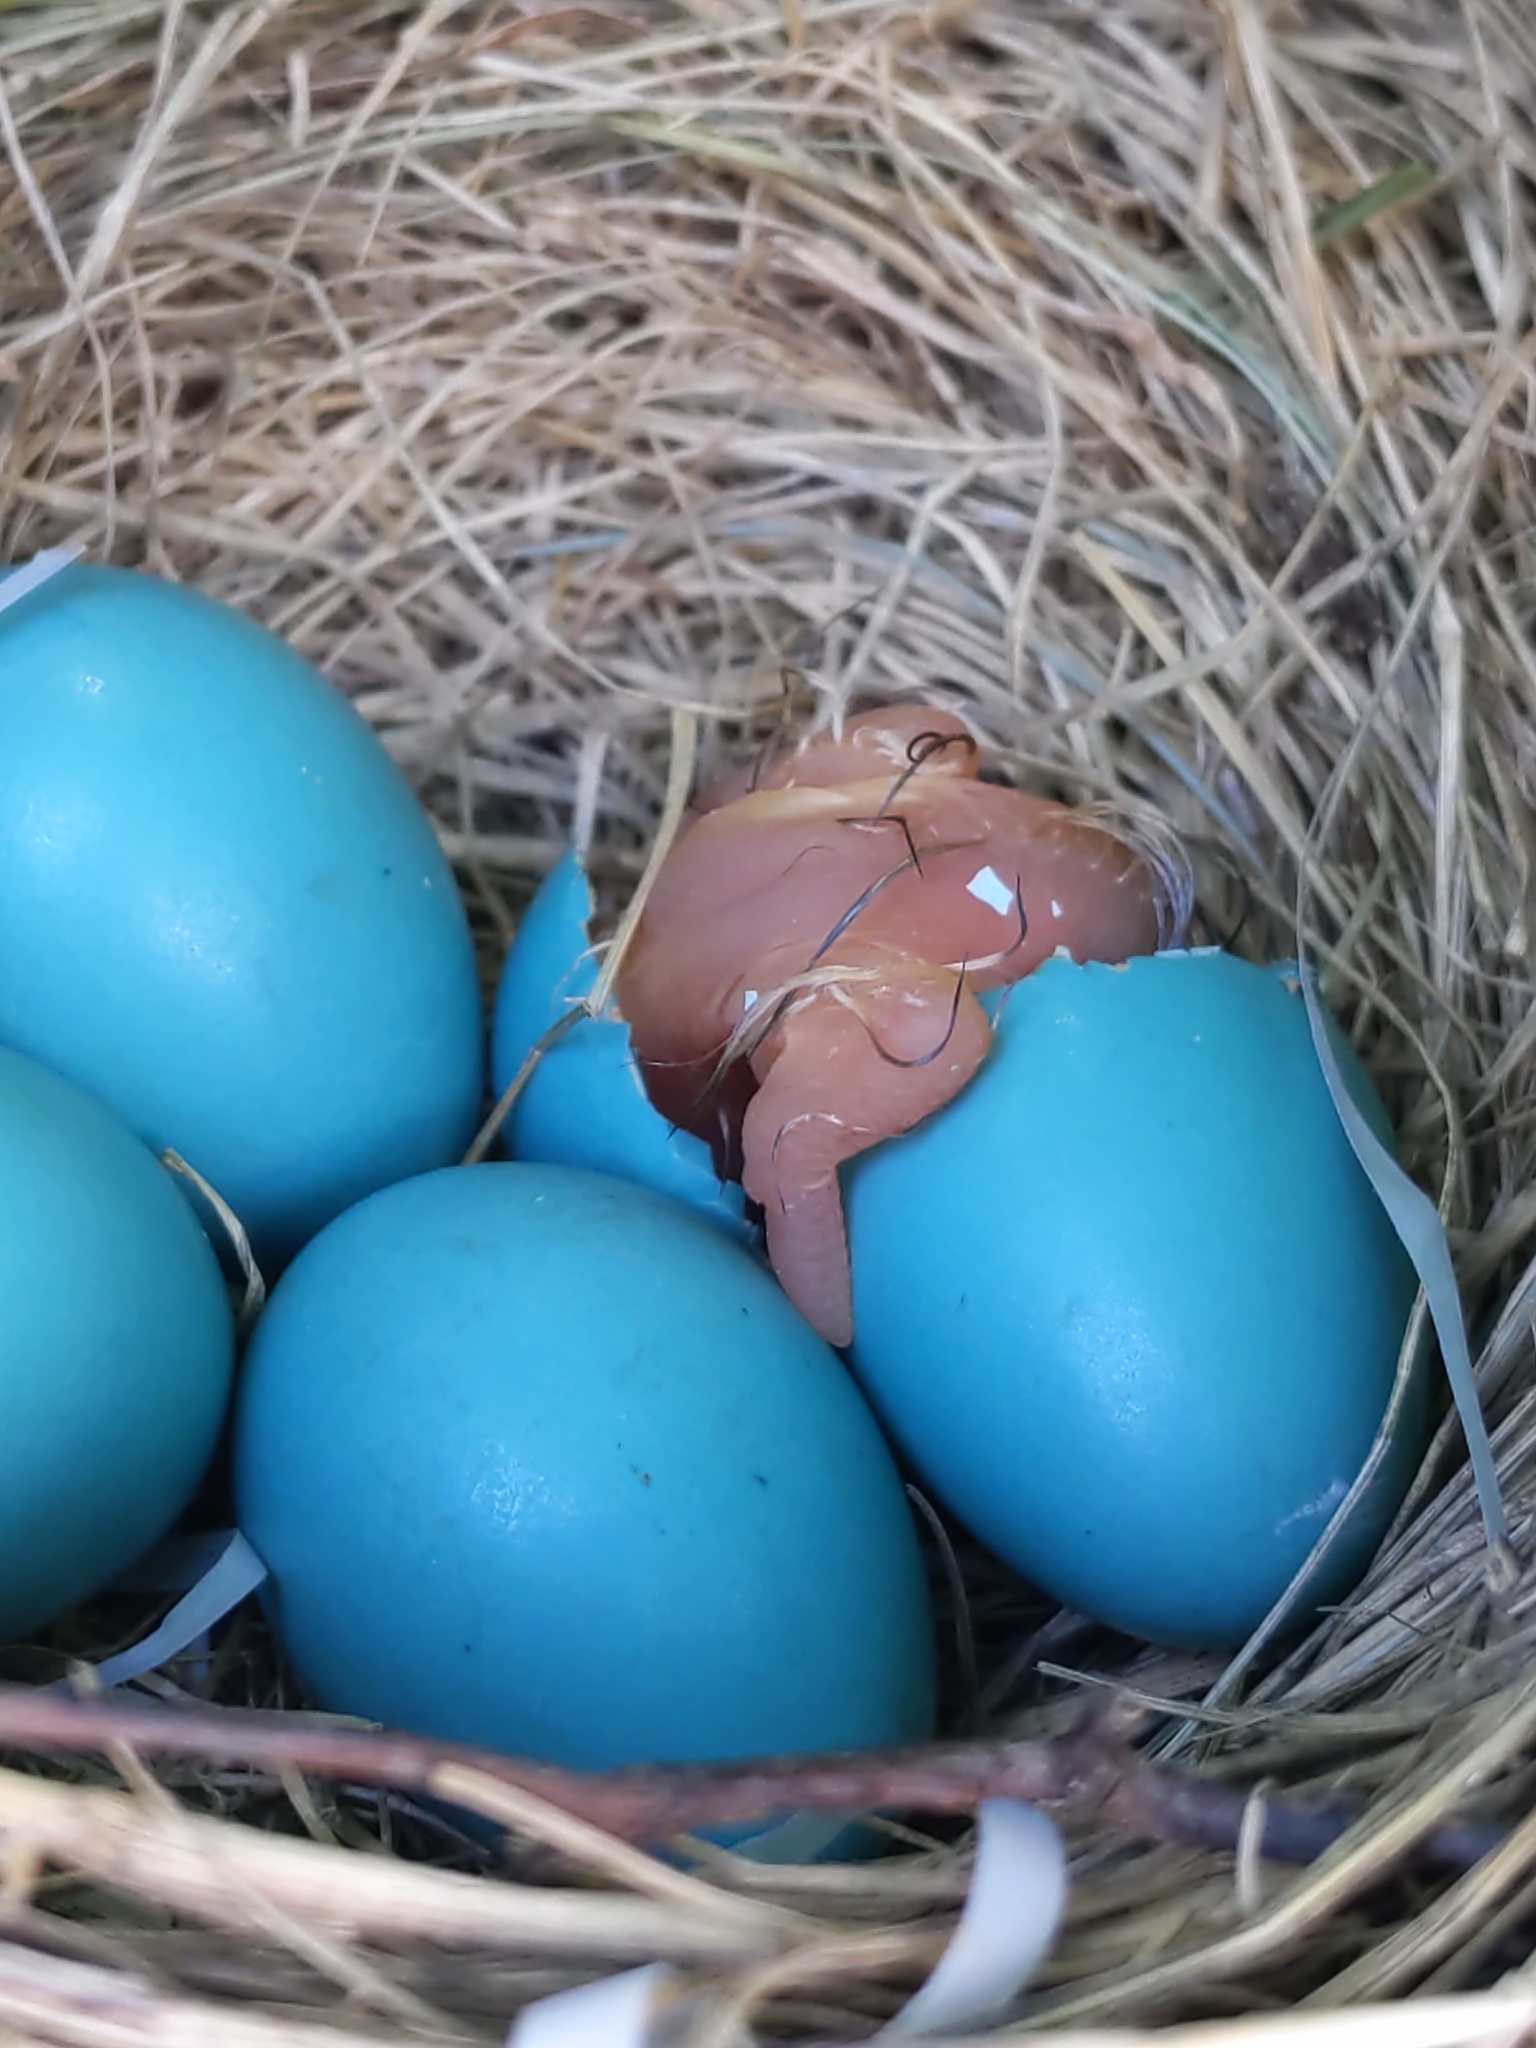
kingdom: Animalia
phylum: Chordata
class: Aves
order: Passeriformes
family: Turdidae
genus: Turdus
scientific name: Turdus migratorius
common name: American robin
